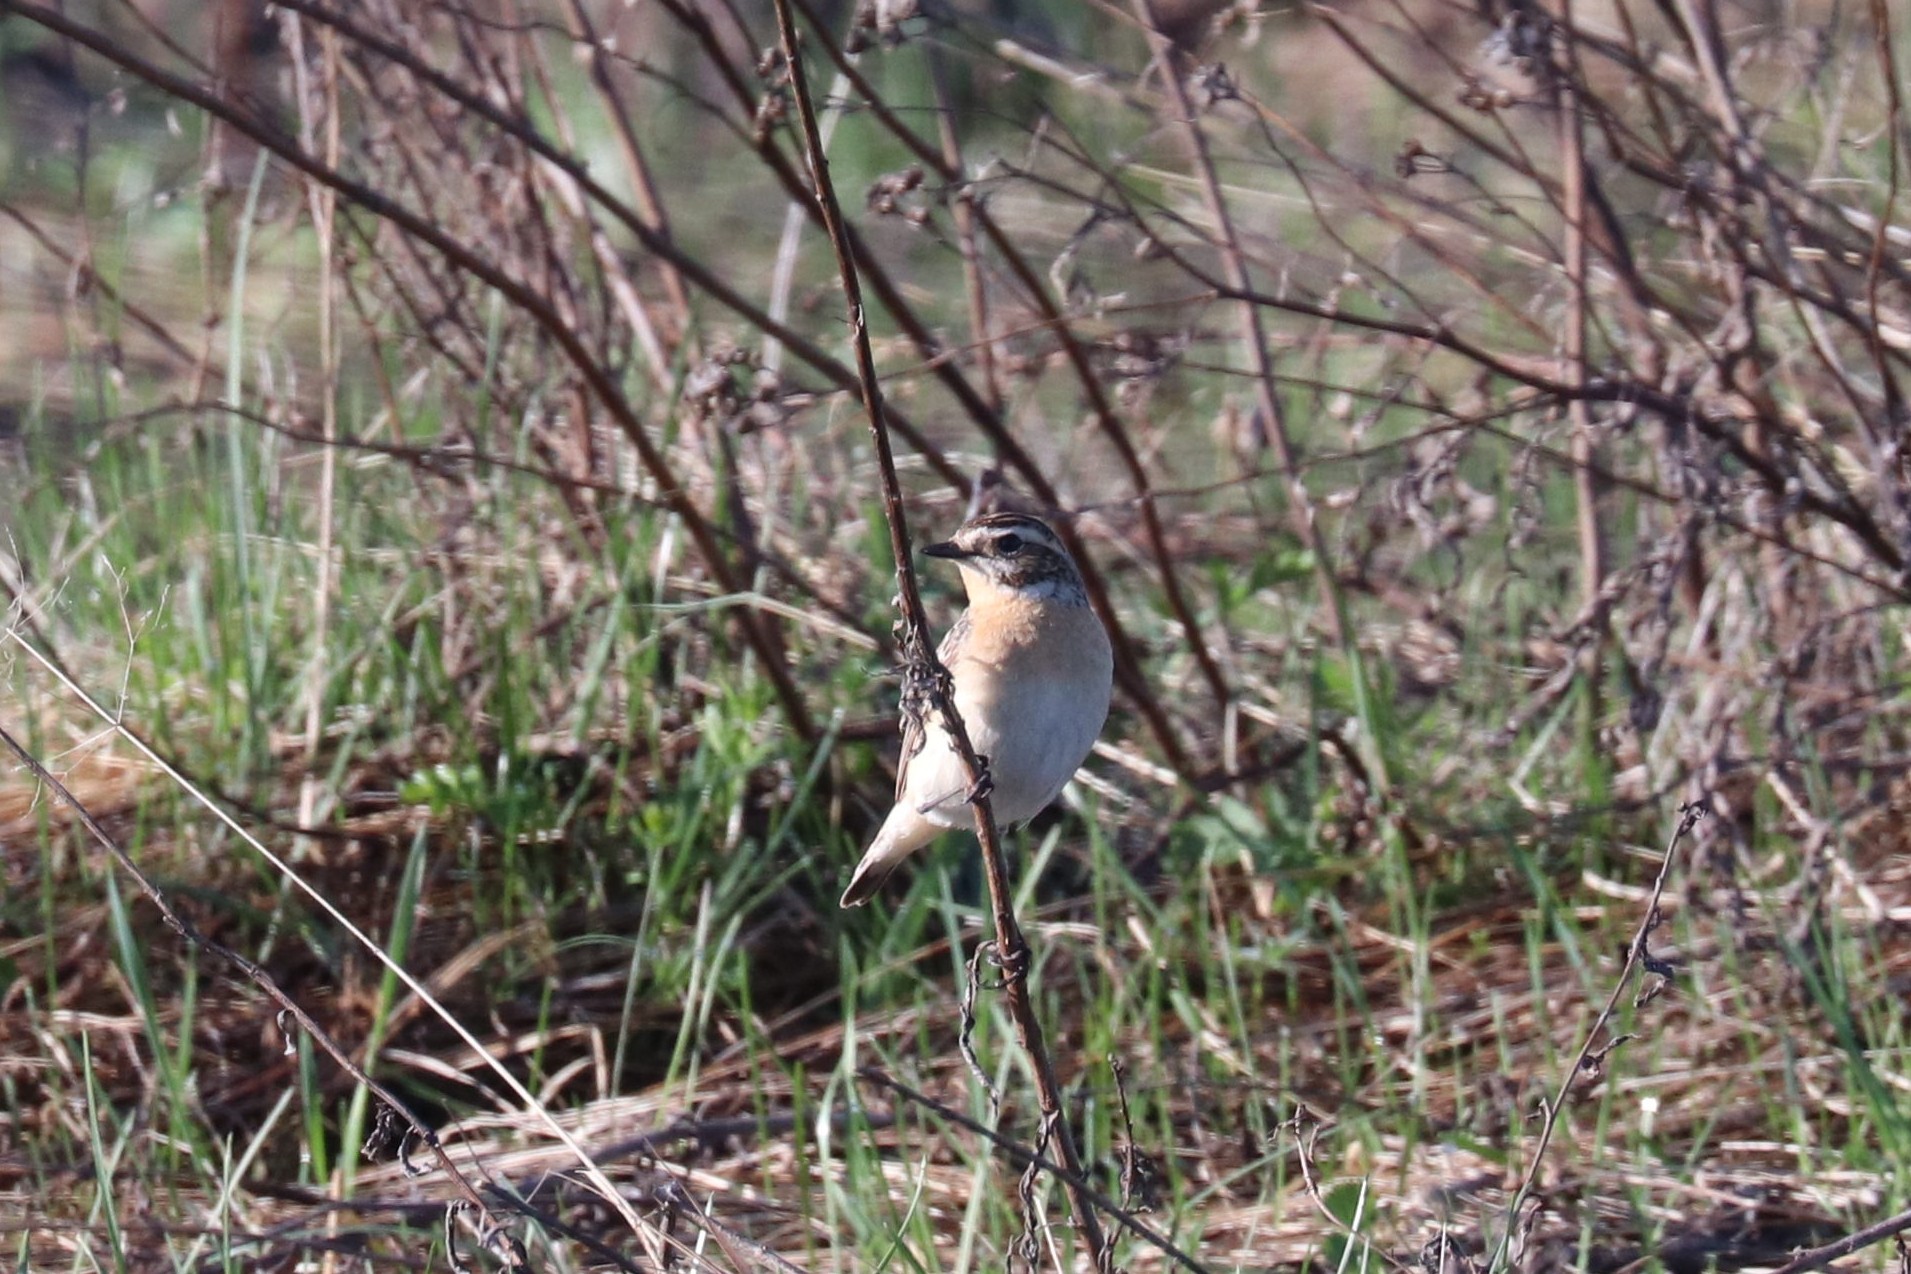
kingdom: Animalia
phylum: Chordata
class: Aves
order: Passeriformes
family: Muscicapidae
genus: Saxicola
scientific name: Saxicola rubetra
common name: Whinchat
